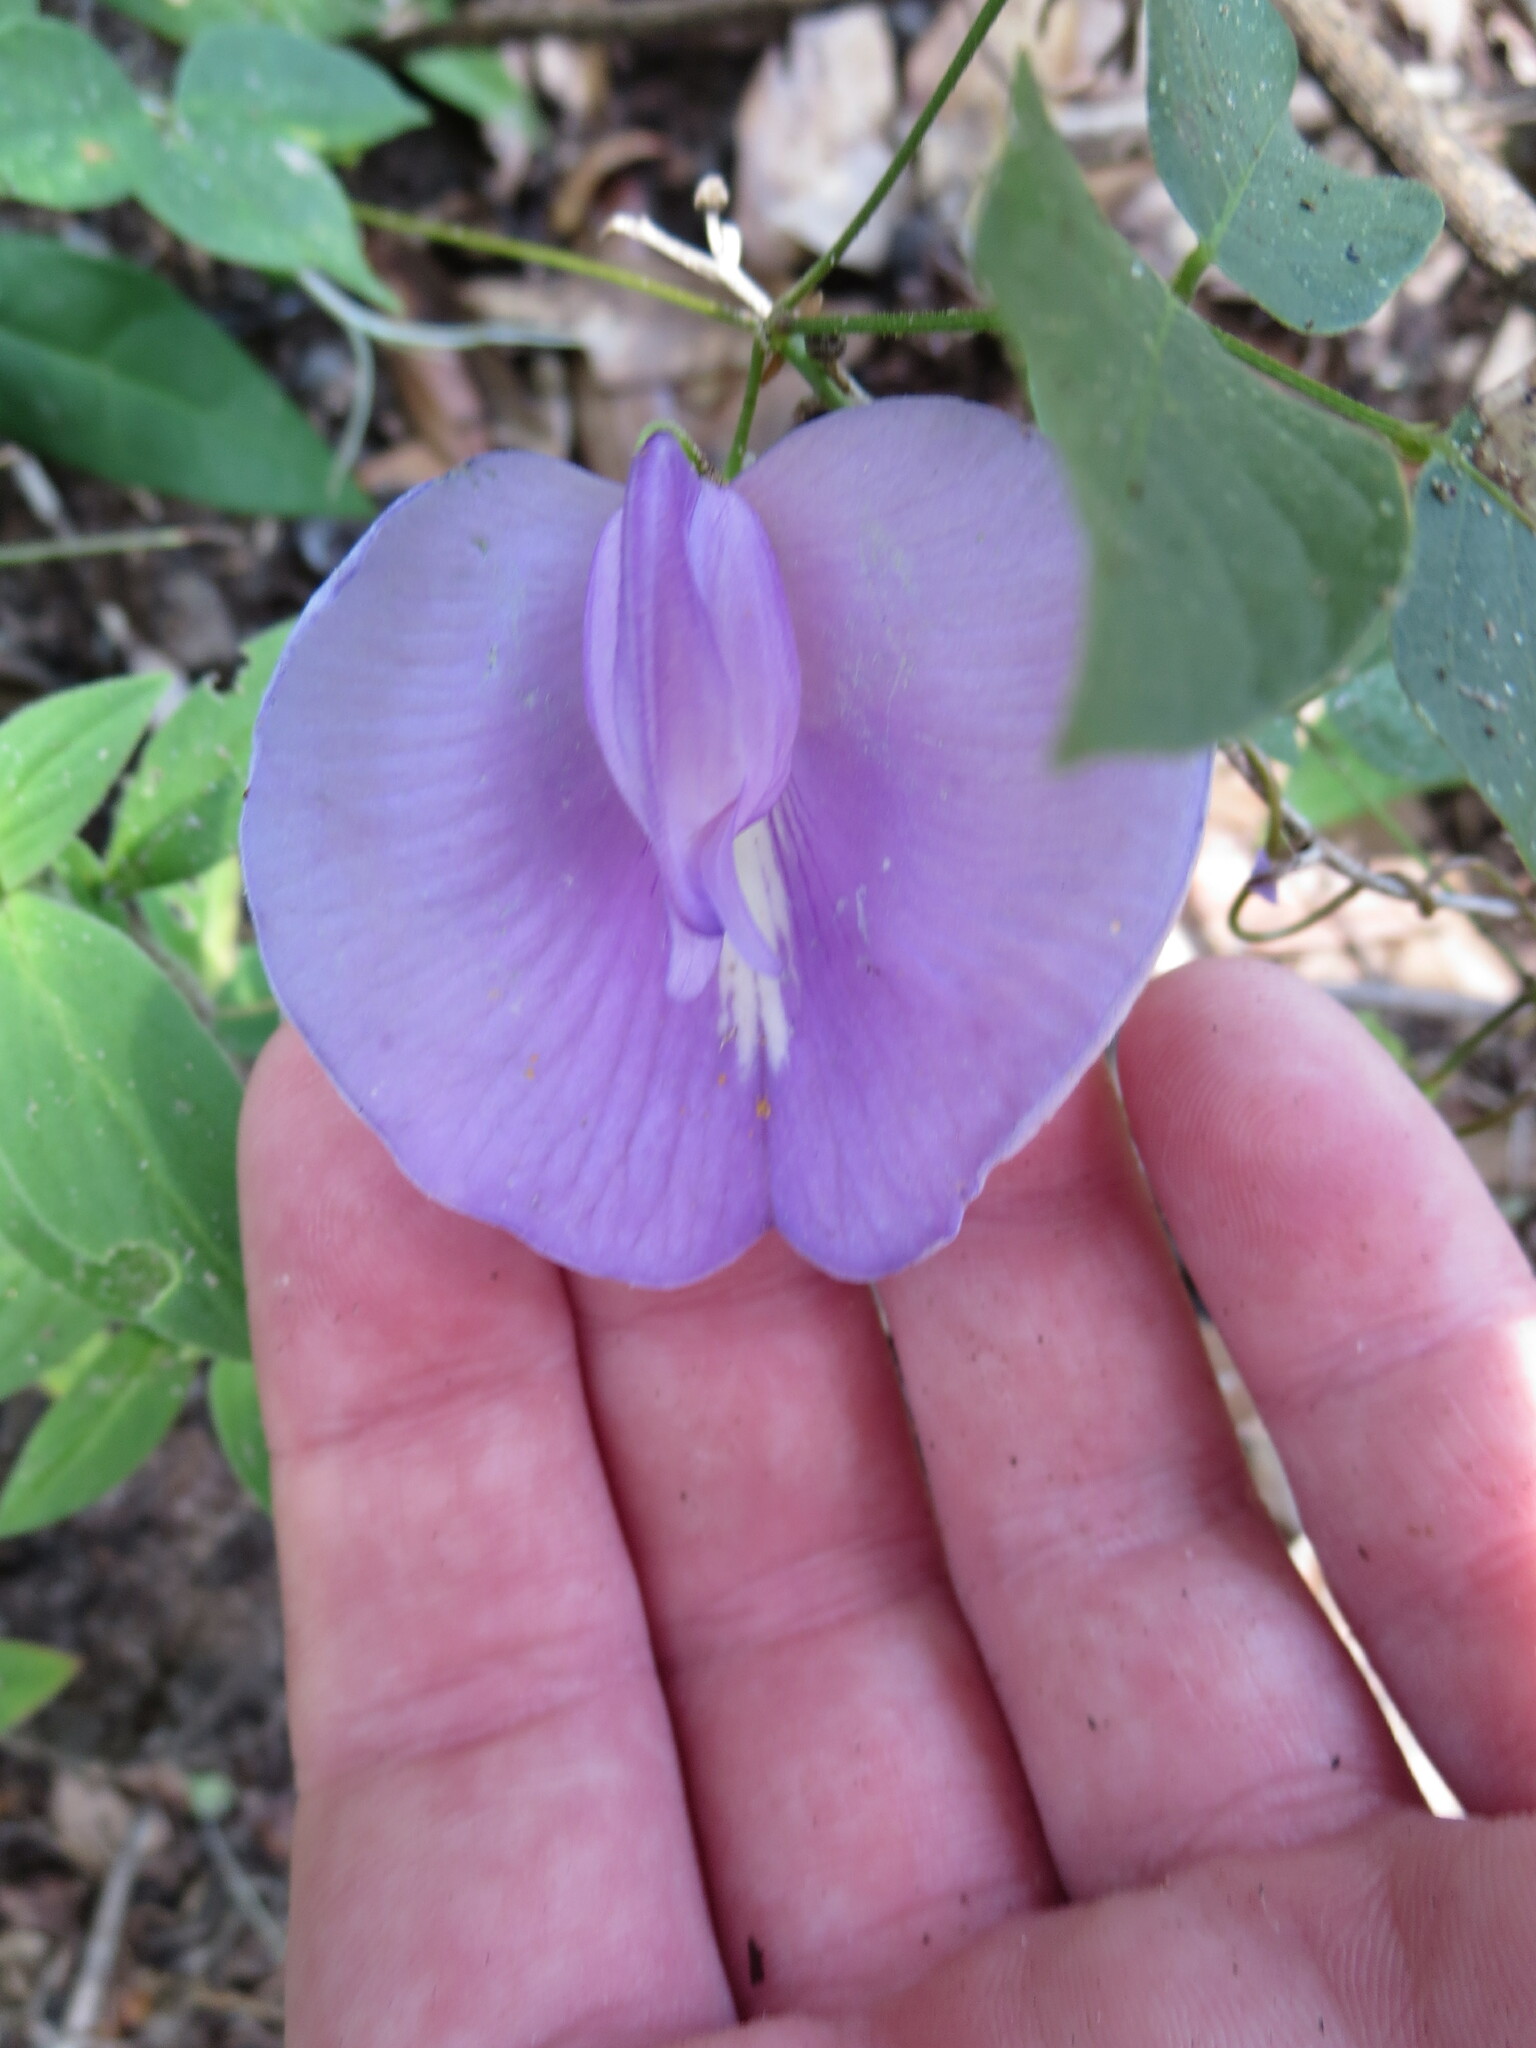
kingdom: Plantae
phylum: Tracheophyta
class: Magnoliopsida
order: Fabales
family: Fabaceae
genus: Centrosema
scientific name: Centrosema virginianum
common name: Butterfly-pea
